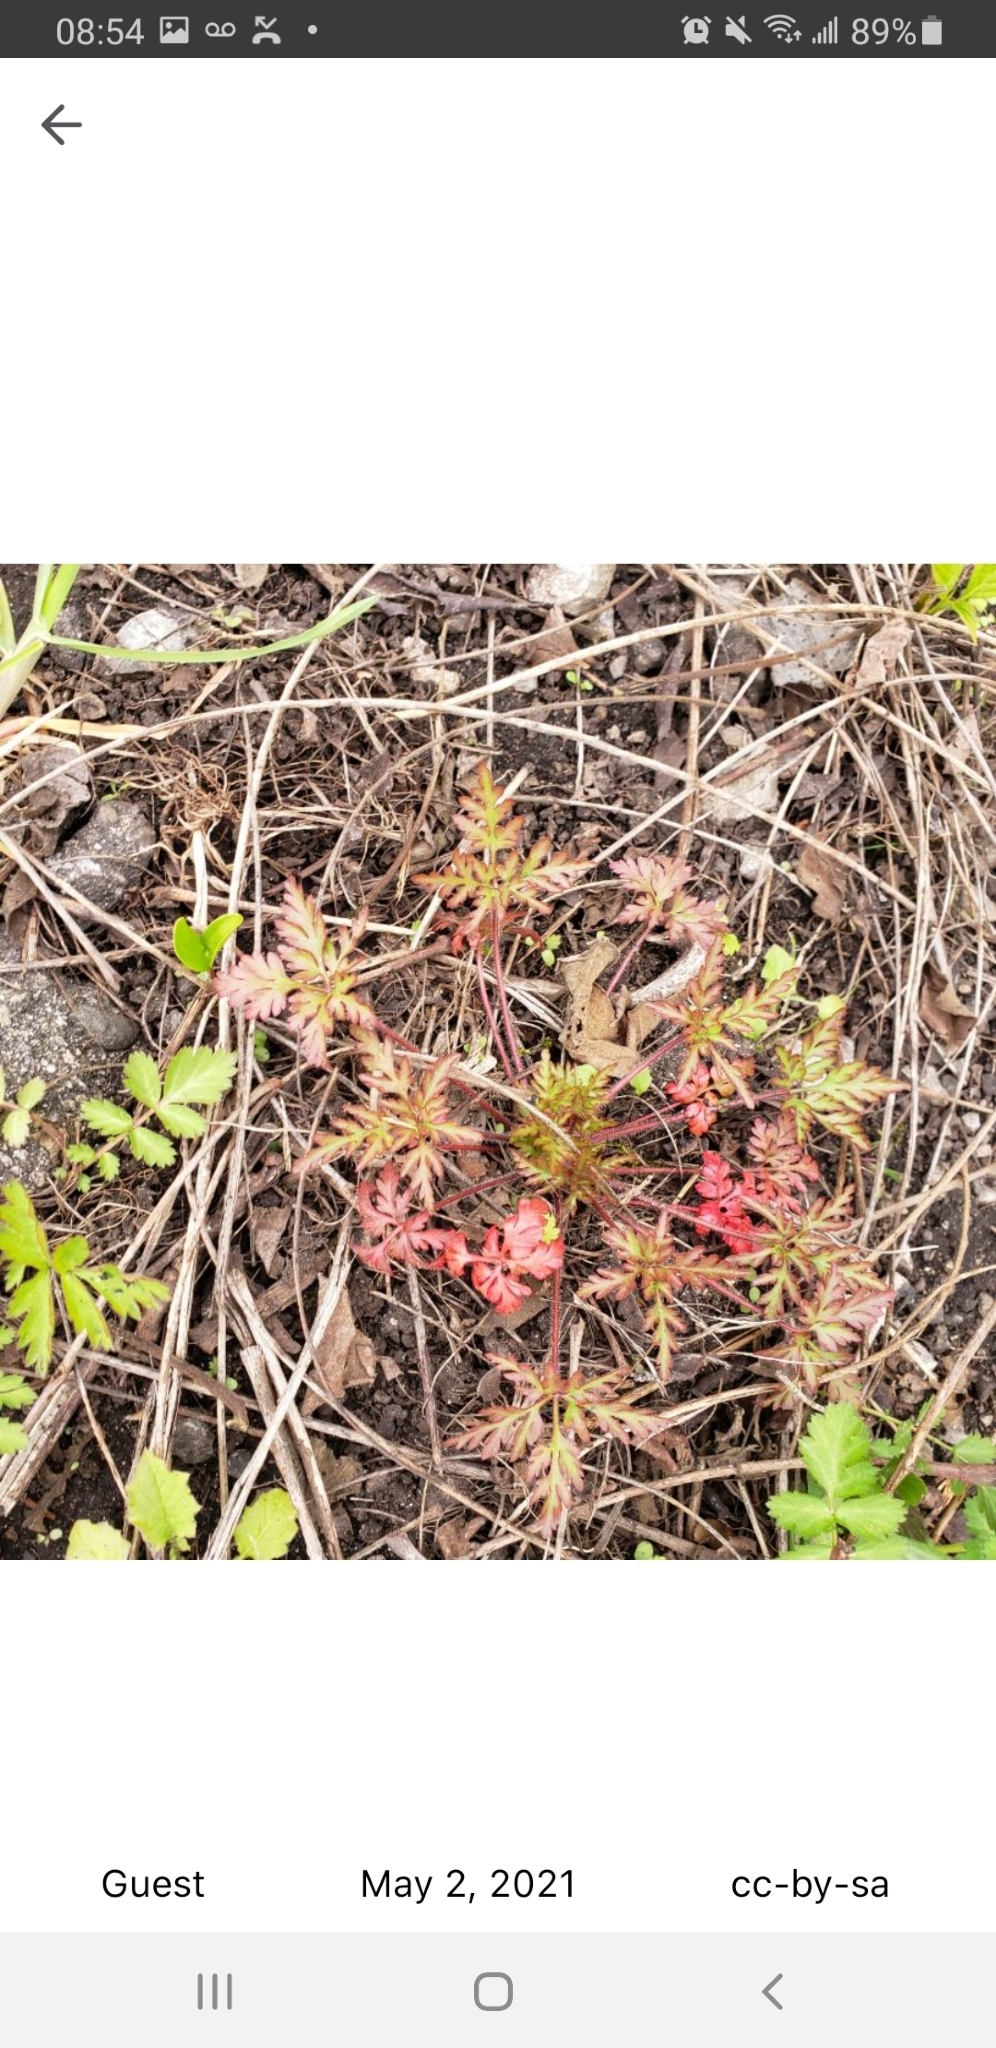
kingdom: Plantae
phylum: Tracheophyta
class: Magnoliopsida
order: Geraniales
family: Geraniaceae
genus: Geranium
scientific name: Geranium robertianum
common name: Herb-robert
